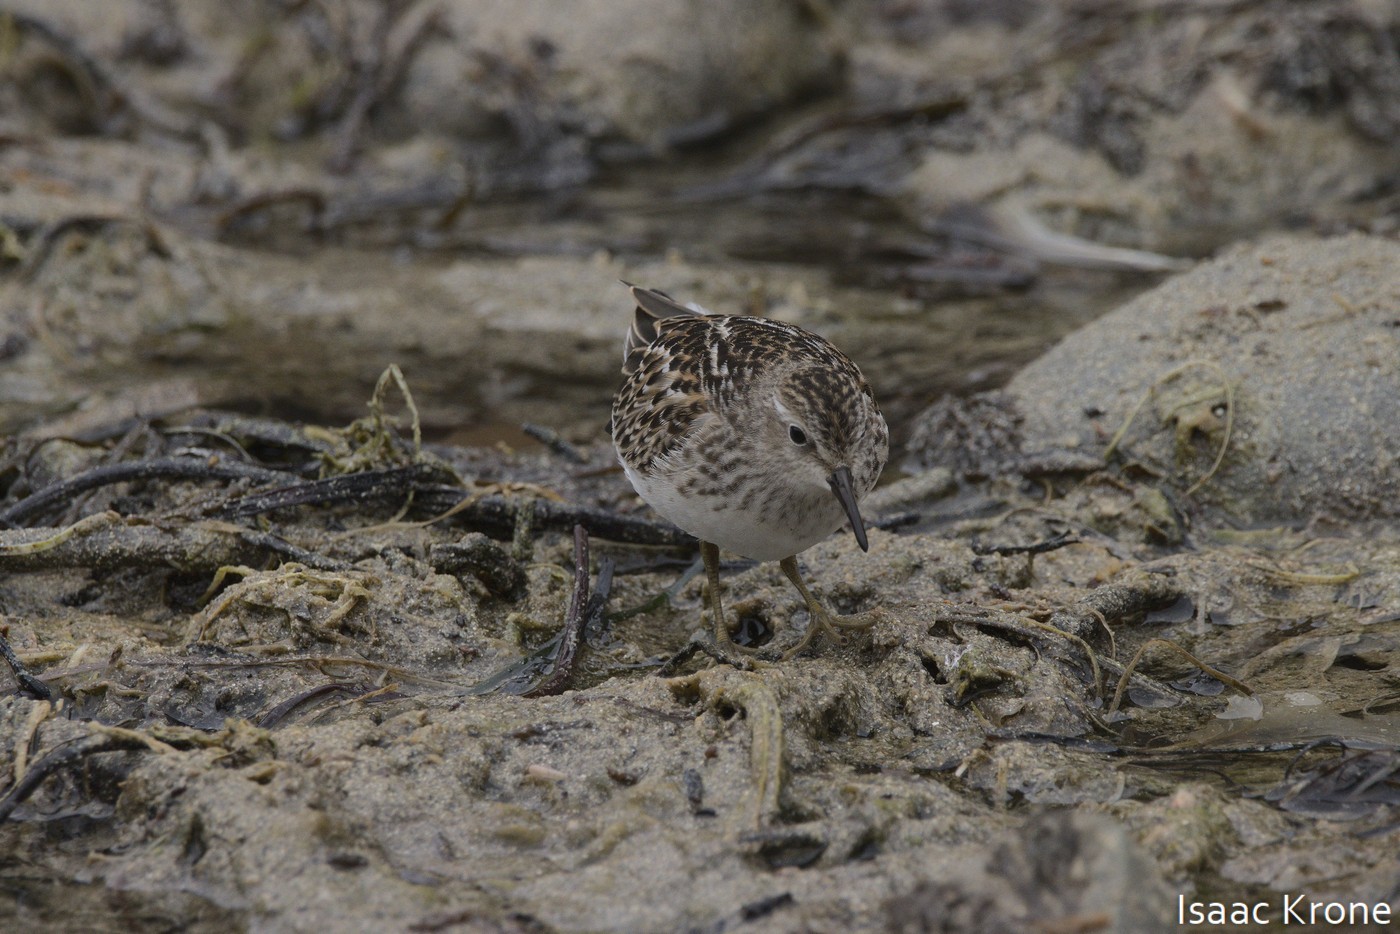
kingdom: Animalia
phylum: Chordata
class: Aves
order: Charadriiformes
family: Scolopacidae
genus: Calidris
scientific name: Calidris minutilla
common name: Least sandpiper
